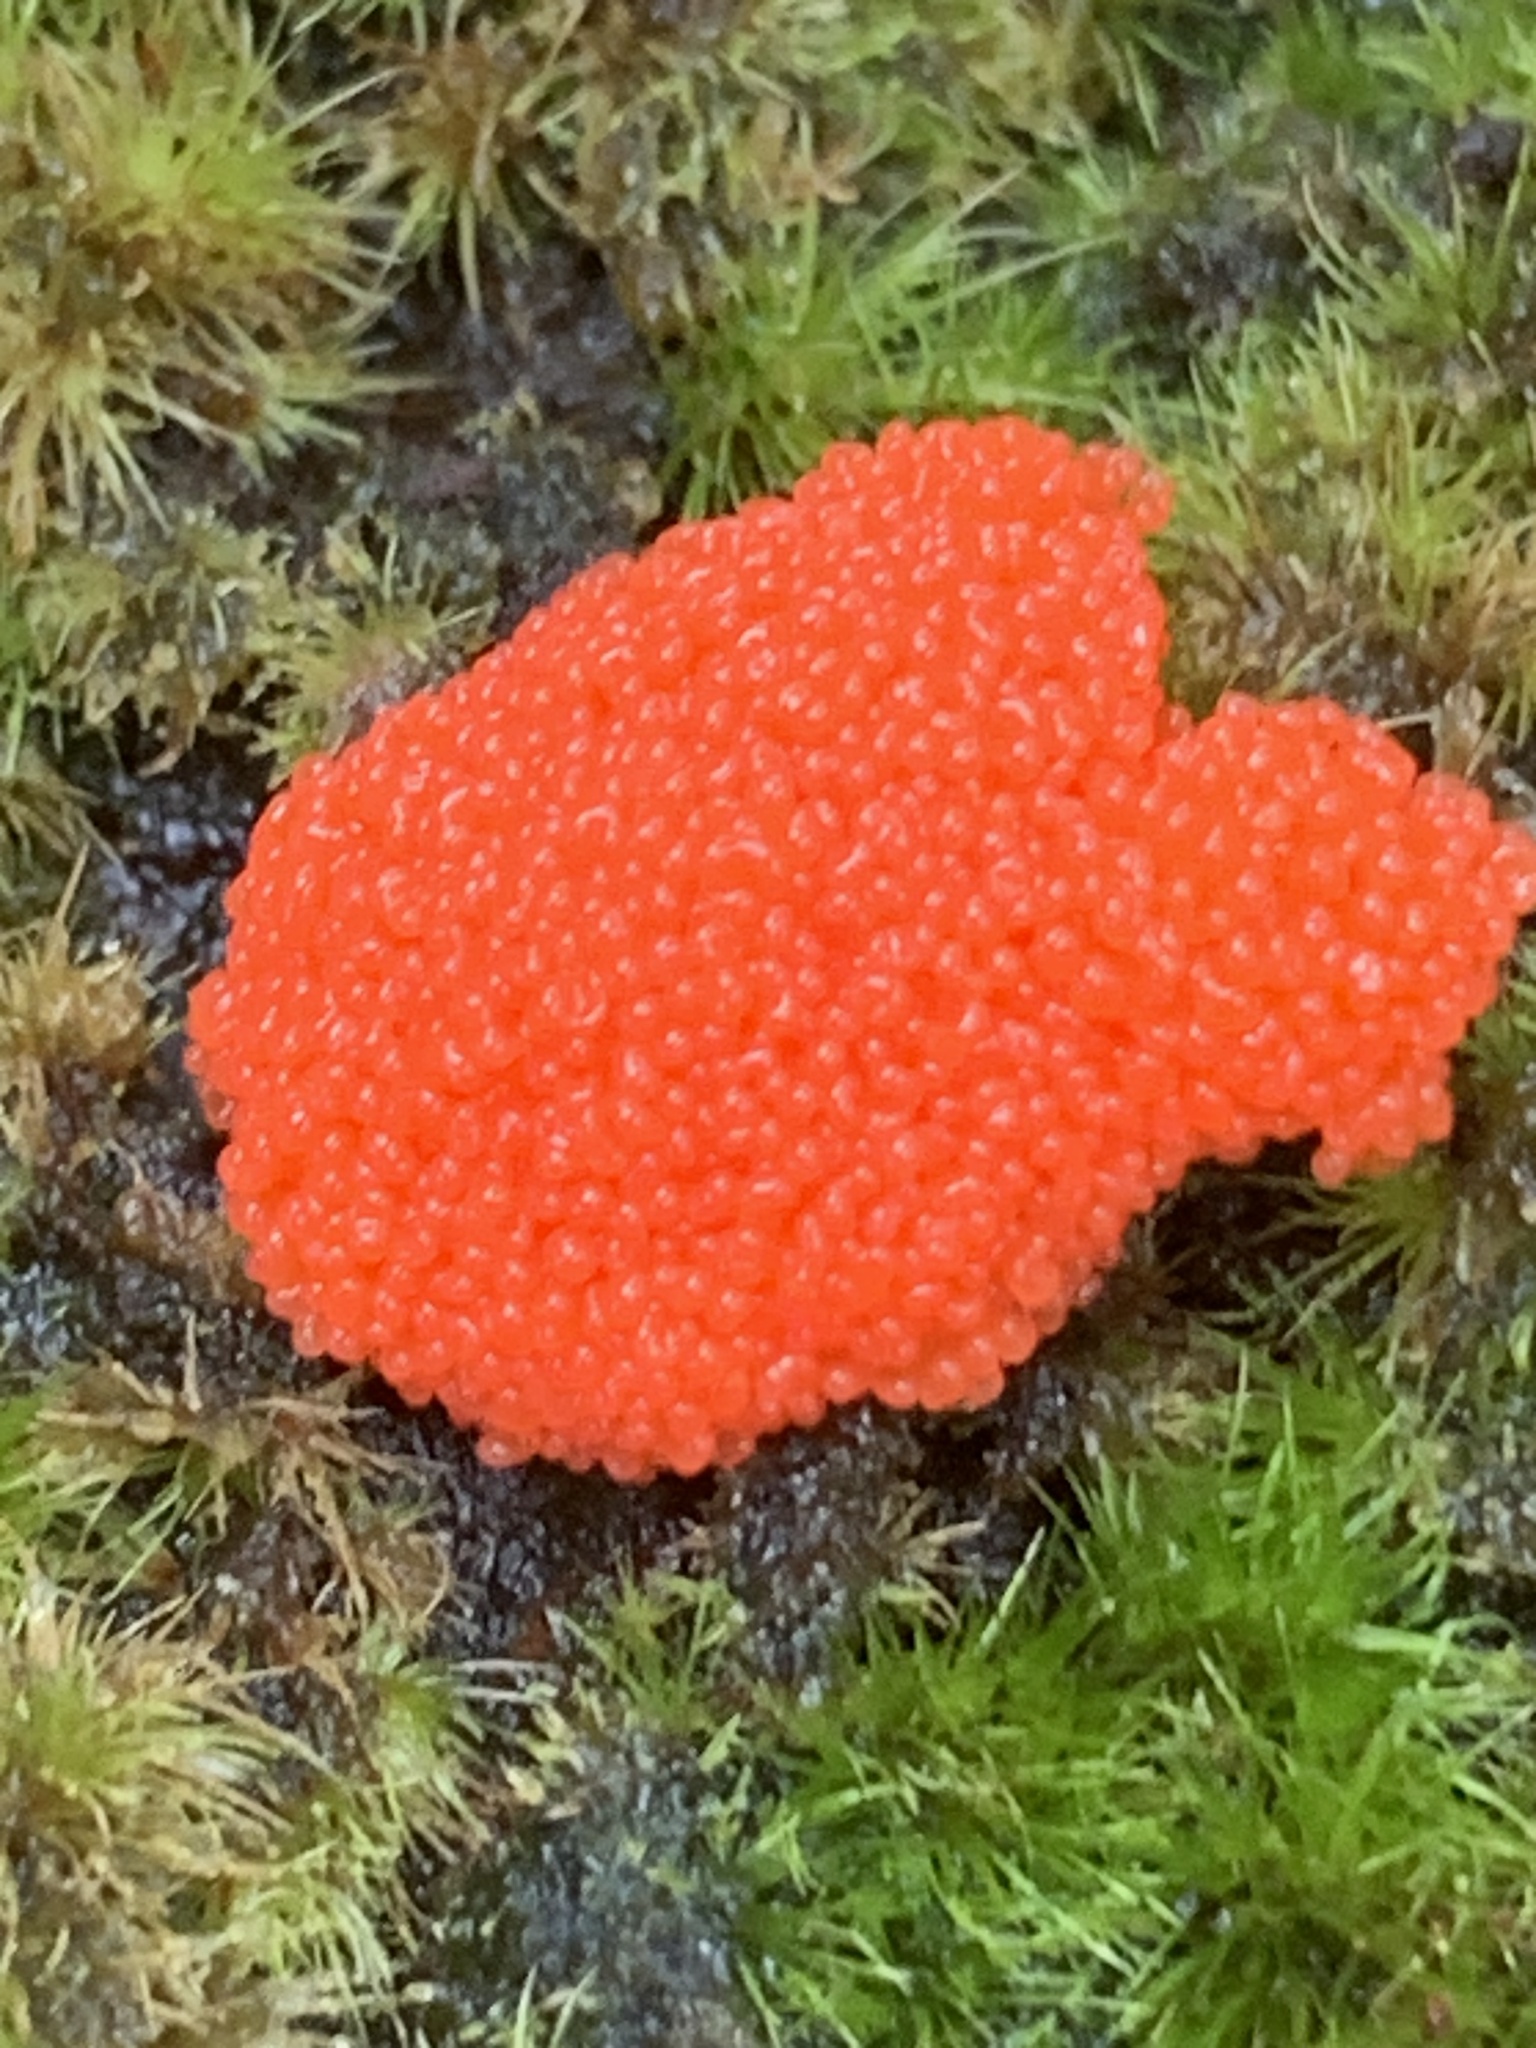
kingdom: Protozoa
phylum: Mycetozoa
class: Myxomycetes
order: Cribrariales
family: Tubiferaceae
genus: Tubifera
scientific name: Tubifera ferruginosa
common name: Red raspberry slime mold
